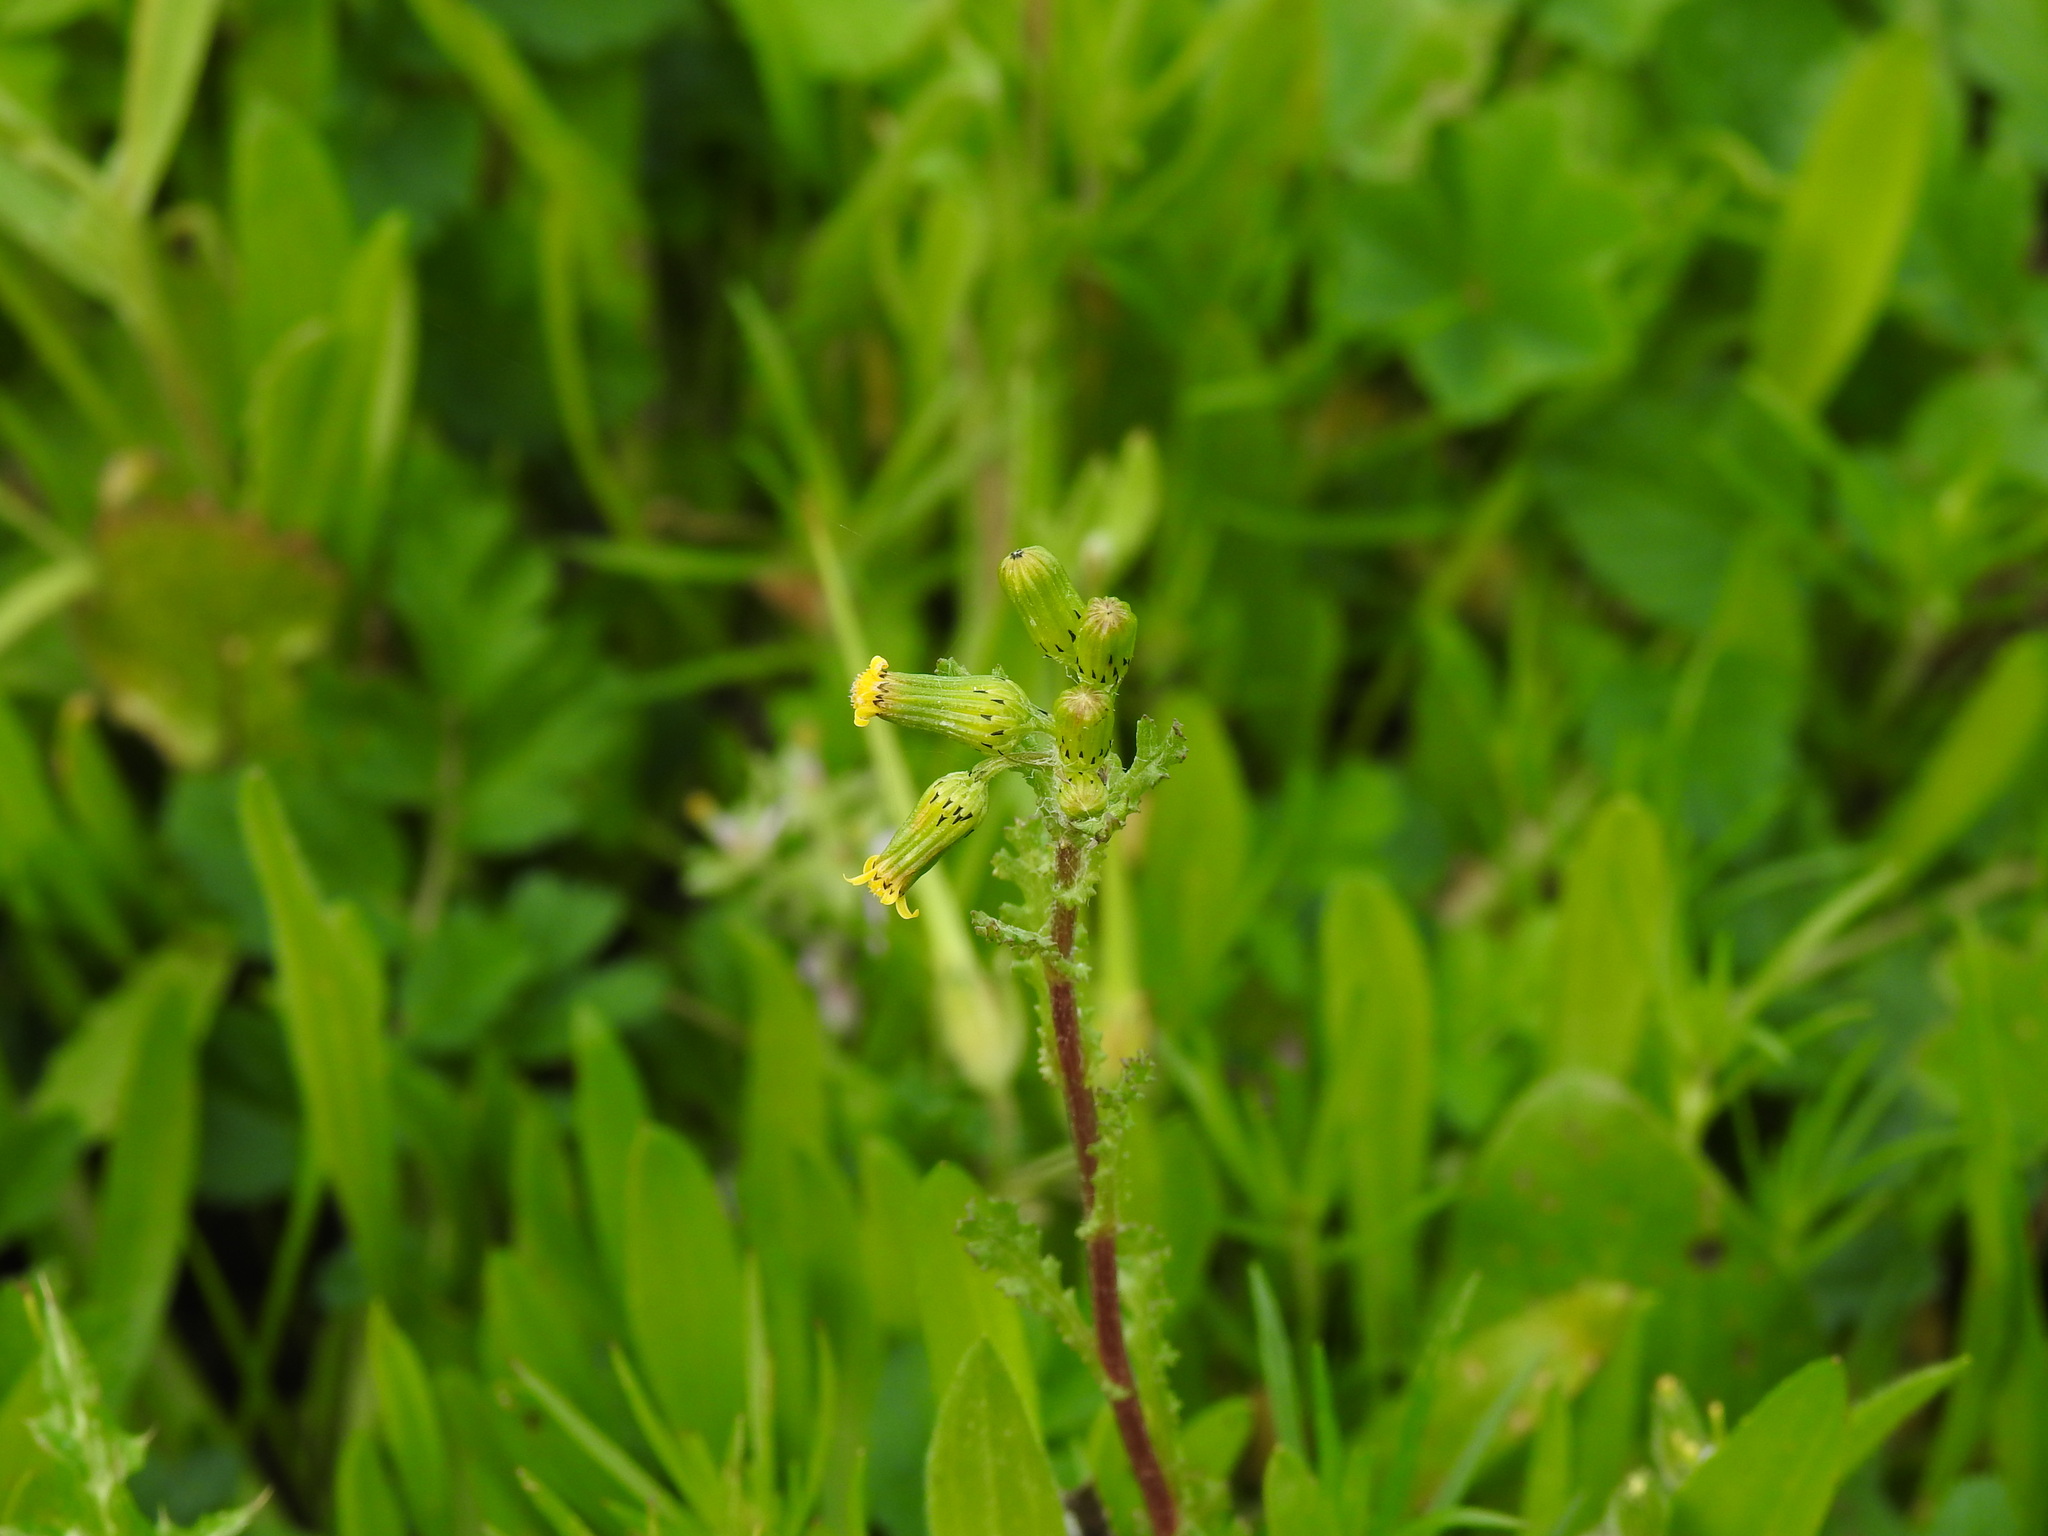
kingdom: Plantae
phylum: Tracheophyta
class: Magnoliopsida
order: Asterales
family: Asteraceae
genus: Senecio
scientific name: Senecio vulgaris
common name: Old-man-in-the-spring
